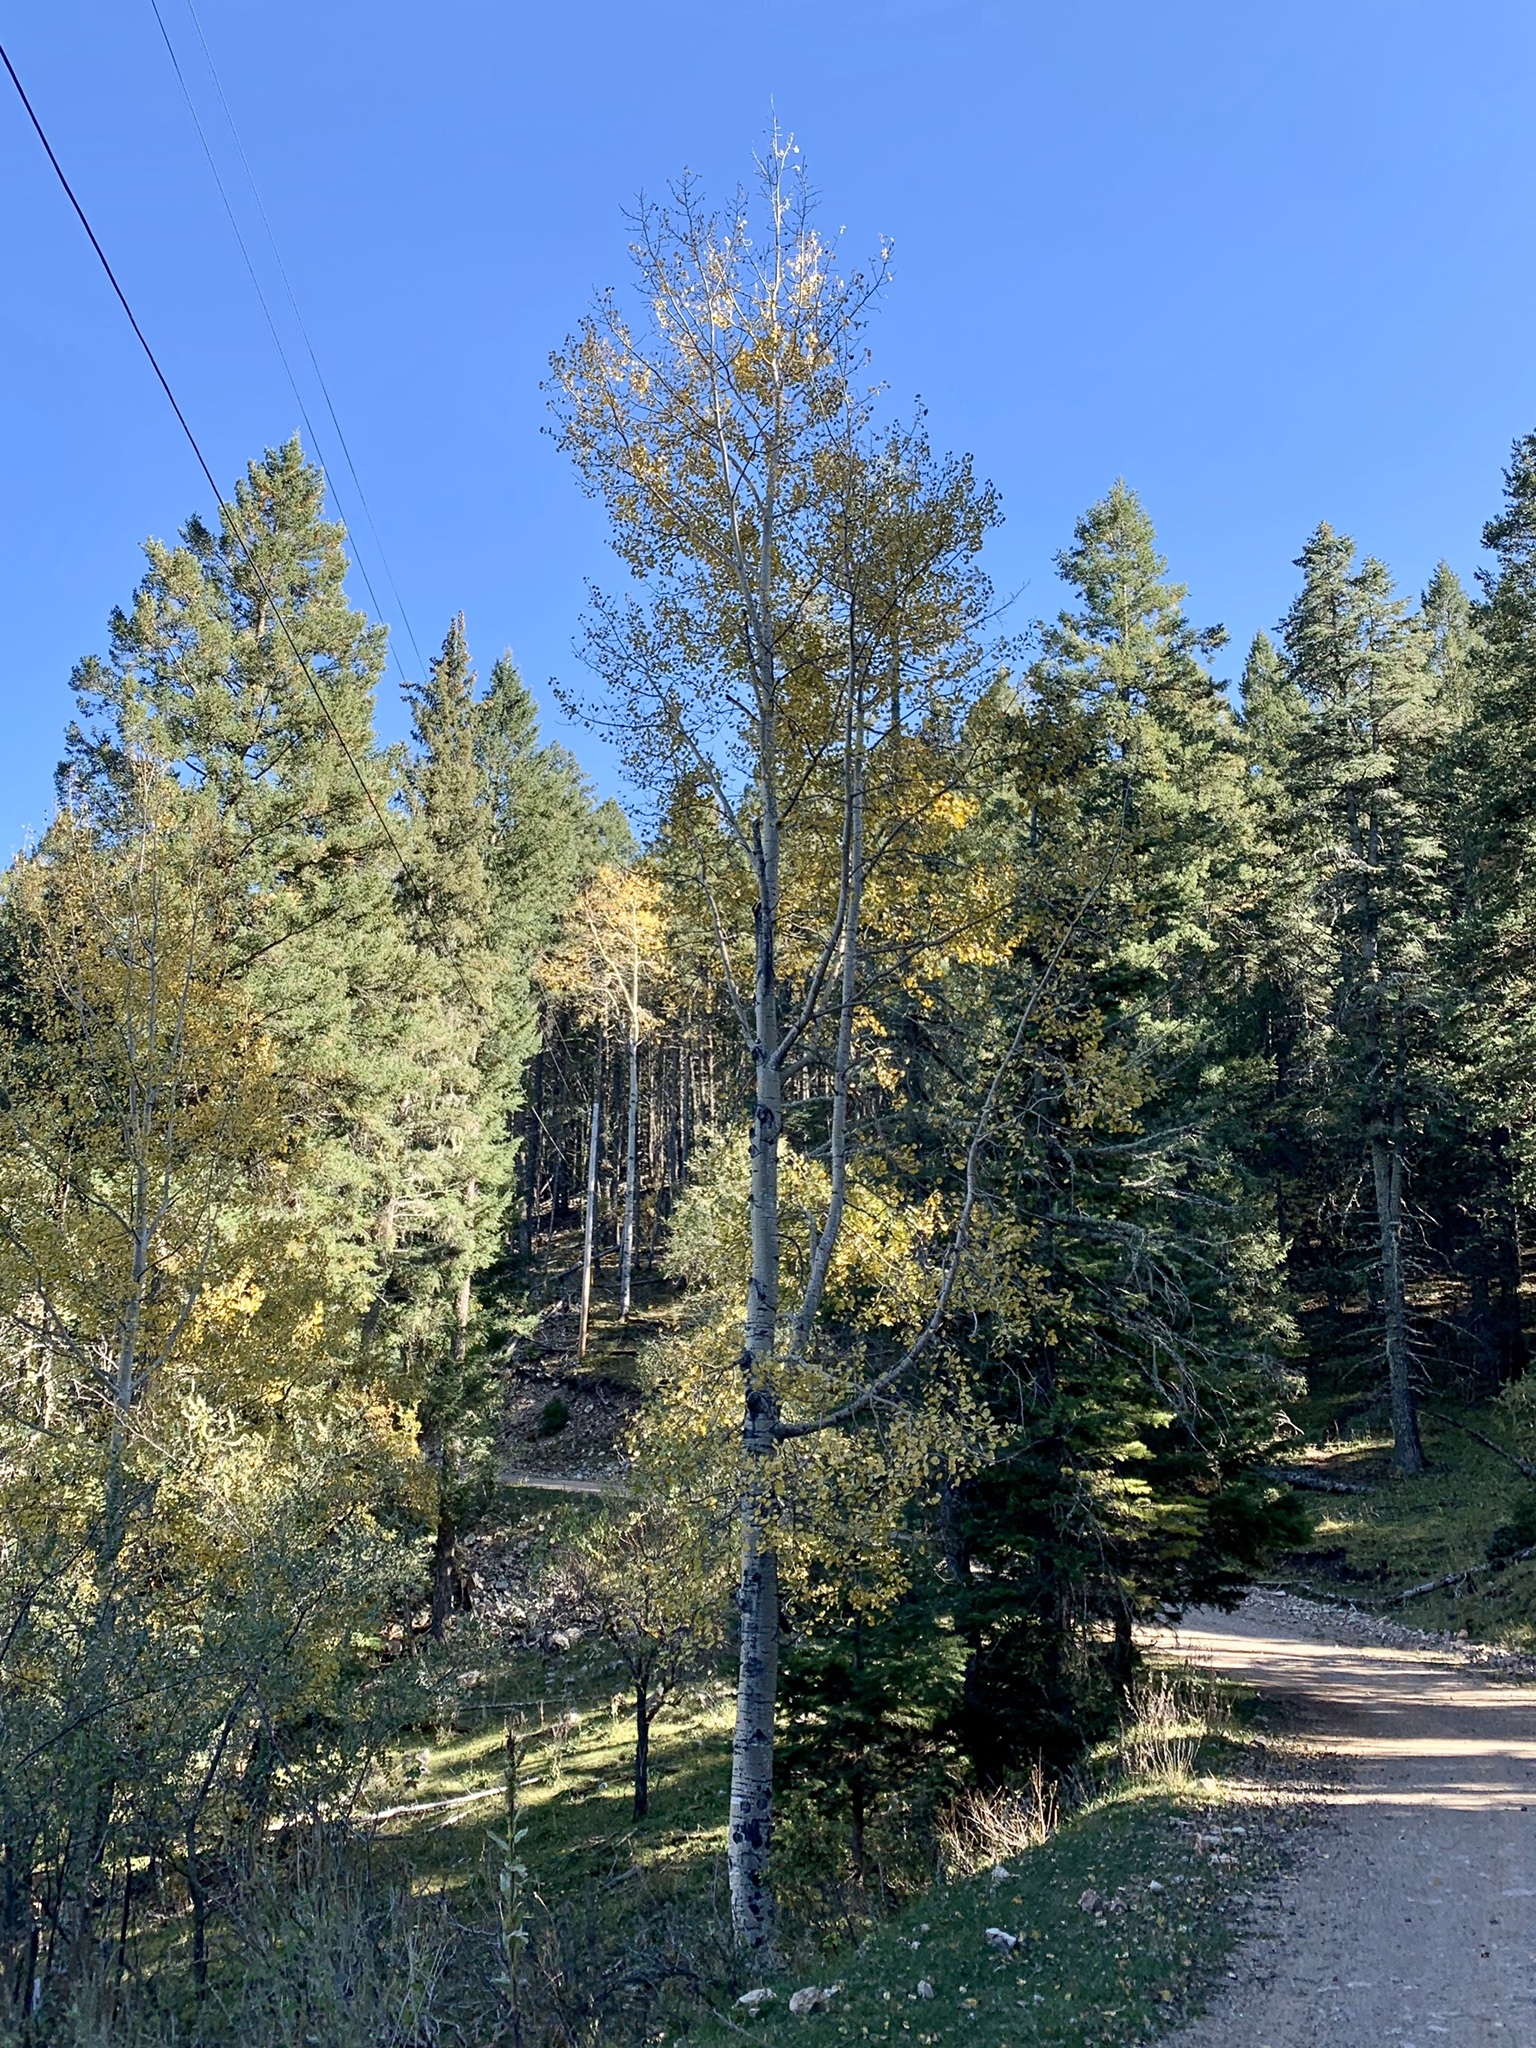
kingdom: Plantae
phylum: Tracheophyta
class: Magnoliopsida
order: Malpighiales
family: Salicaceae
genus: Populus
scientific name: Populus tremuloides
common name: Quaking aspen
